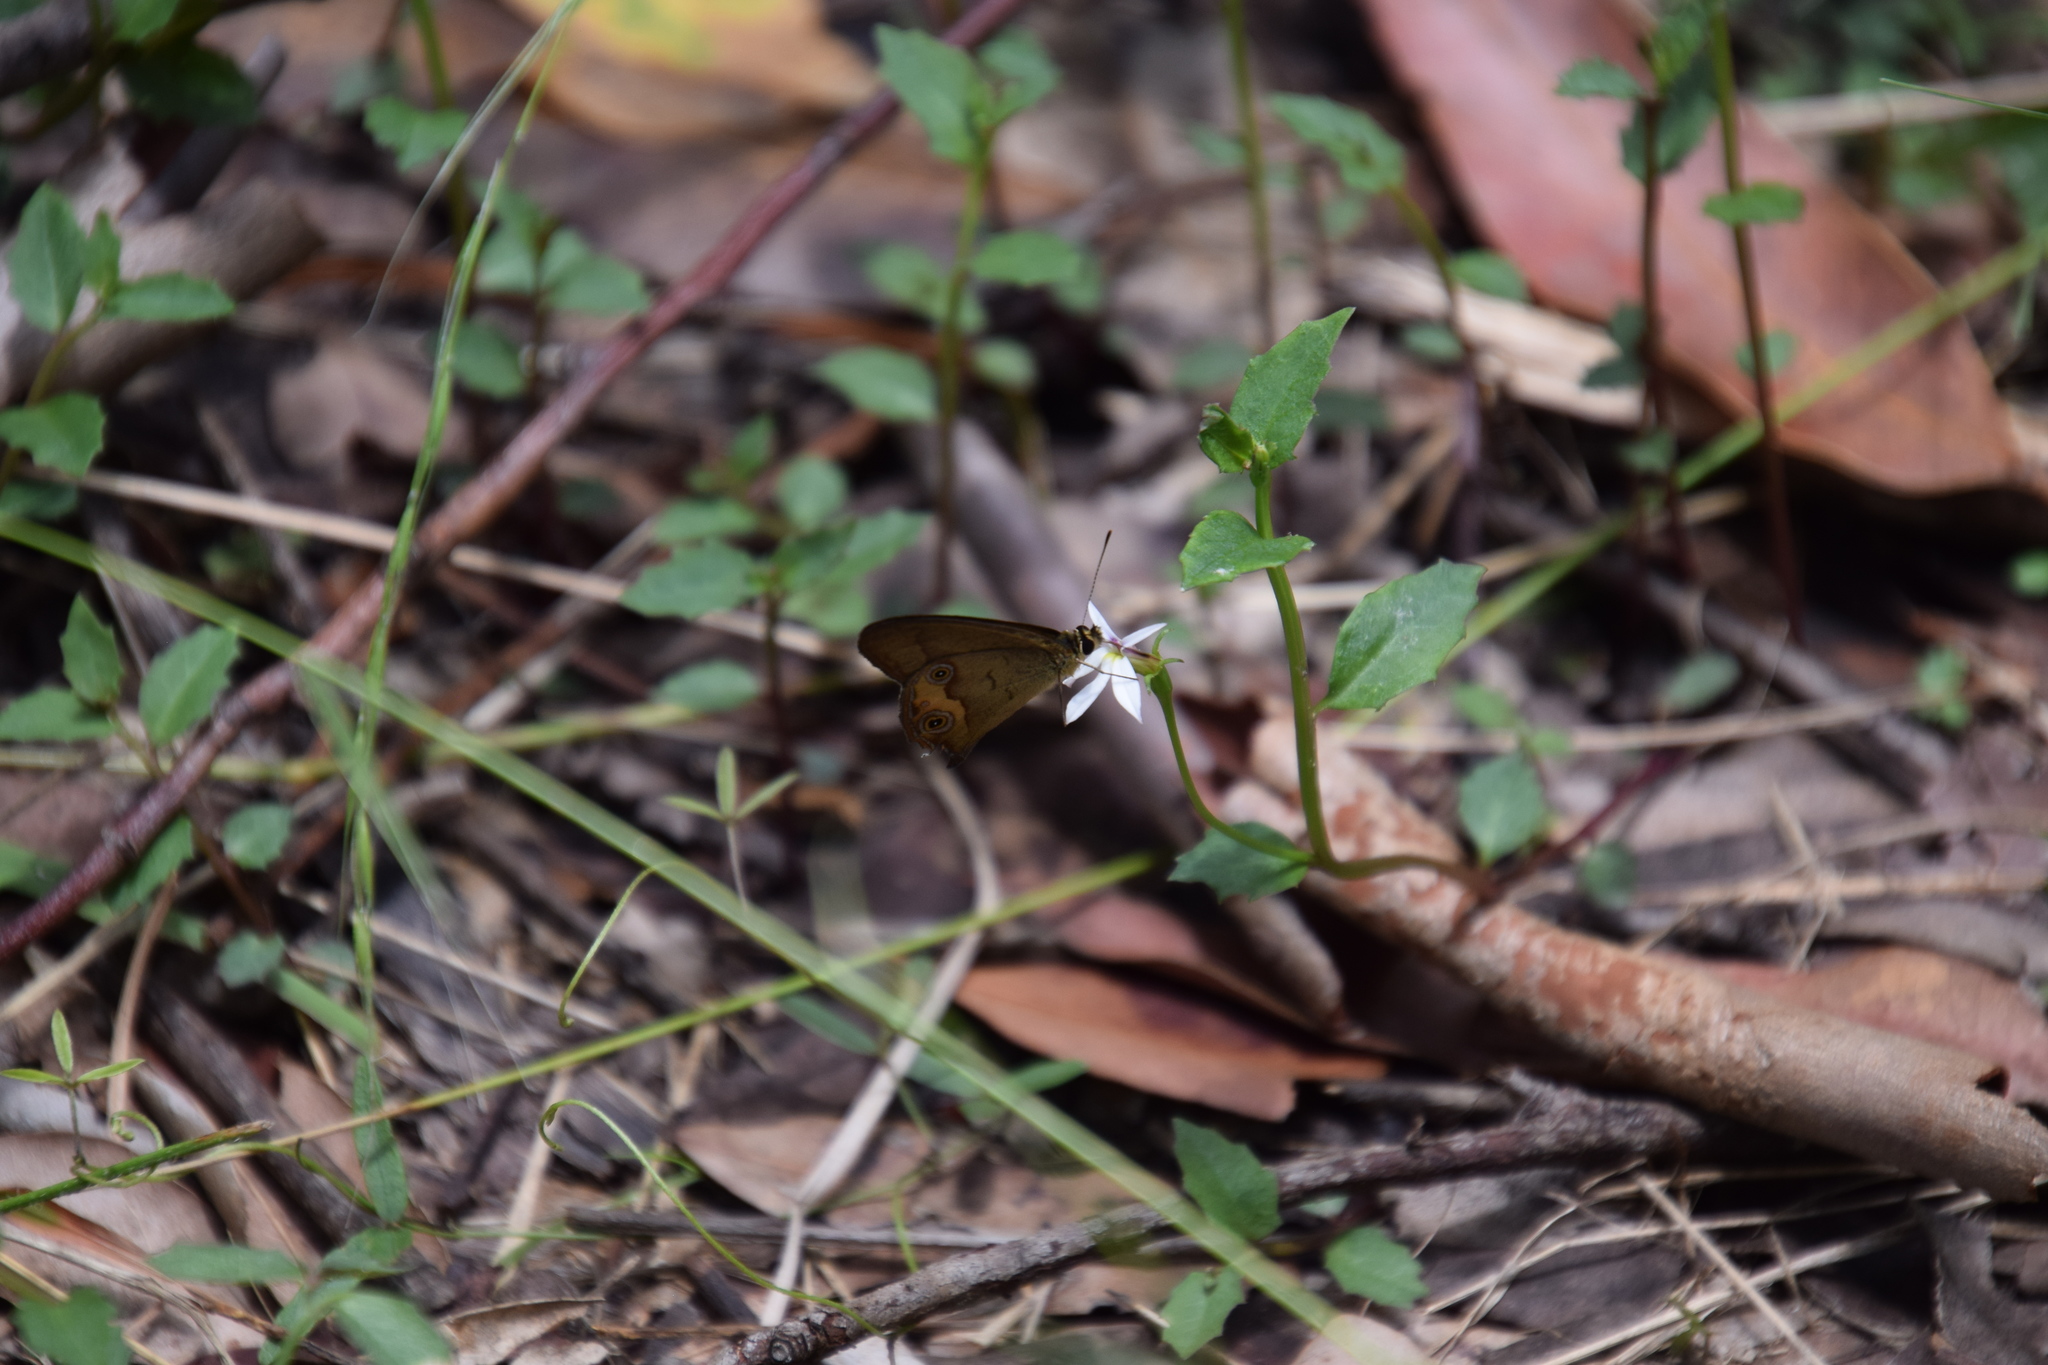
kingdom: Animalia
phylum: Arthropoda
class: Insecta
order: Lepidoptera
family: Nymphalidae
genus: Hypocysta
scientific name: Hypocysta metirius
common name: Brown ringlet
